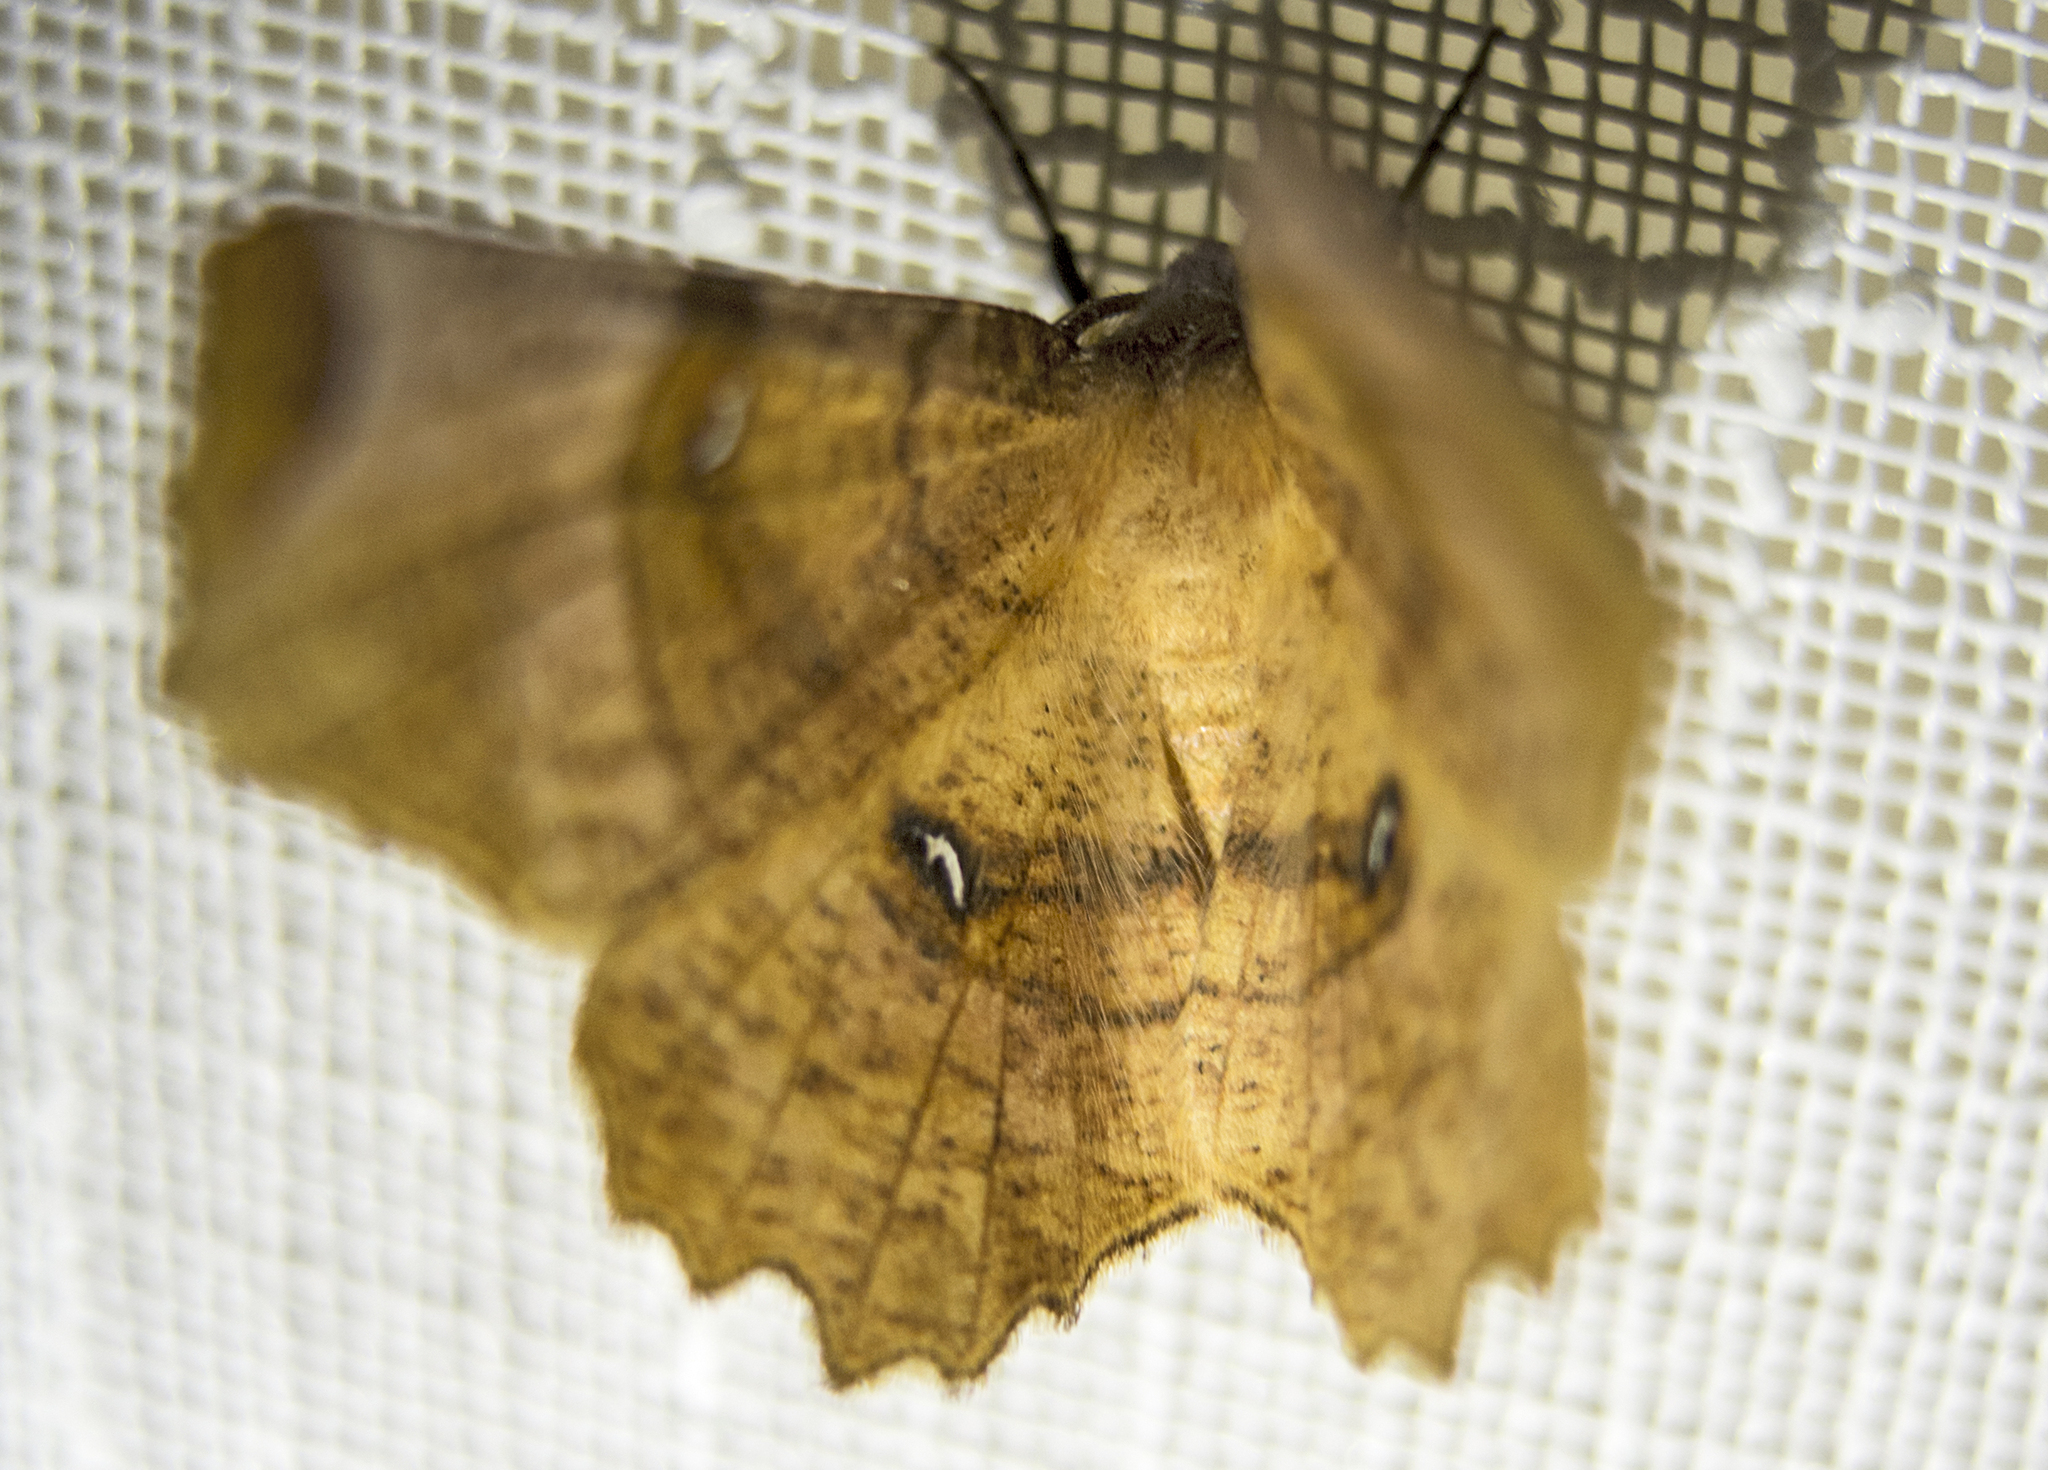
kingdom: Animalia
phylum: Arthropoda
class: Insecta
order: Lepidoptera
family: Geometridae
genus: Selenia
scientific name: Selenia lunularia
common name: Lunar thorn
